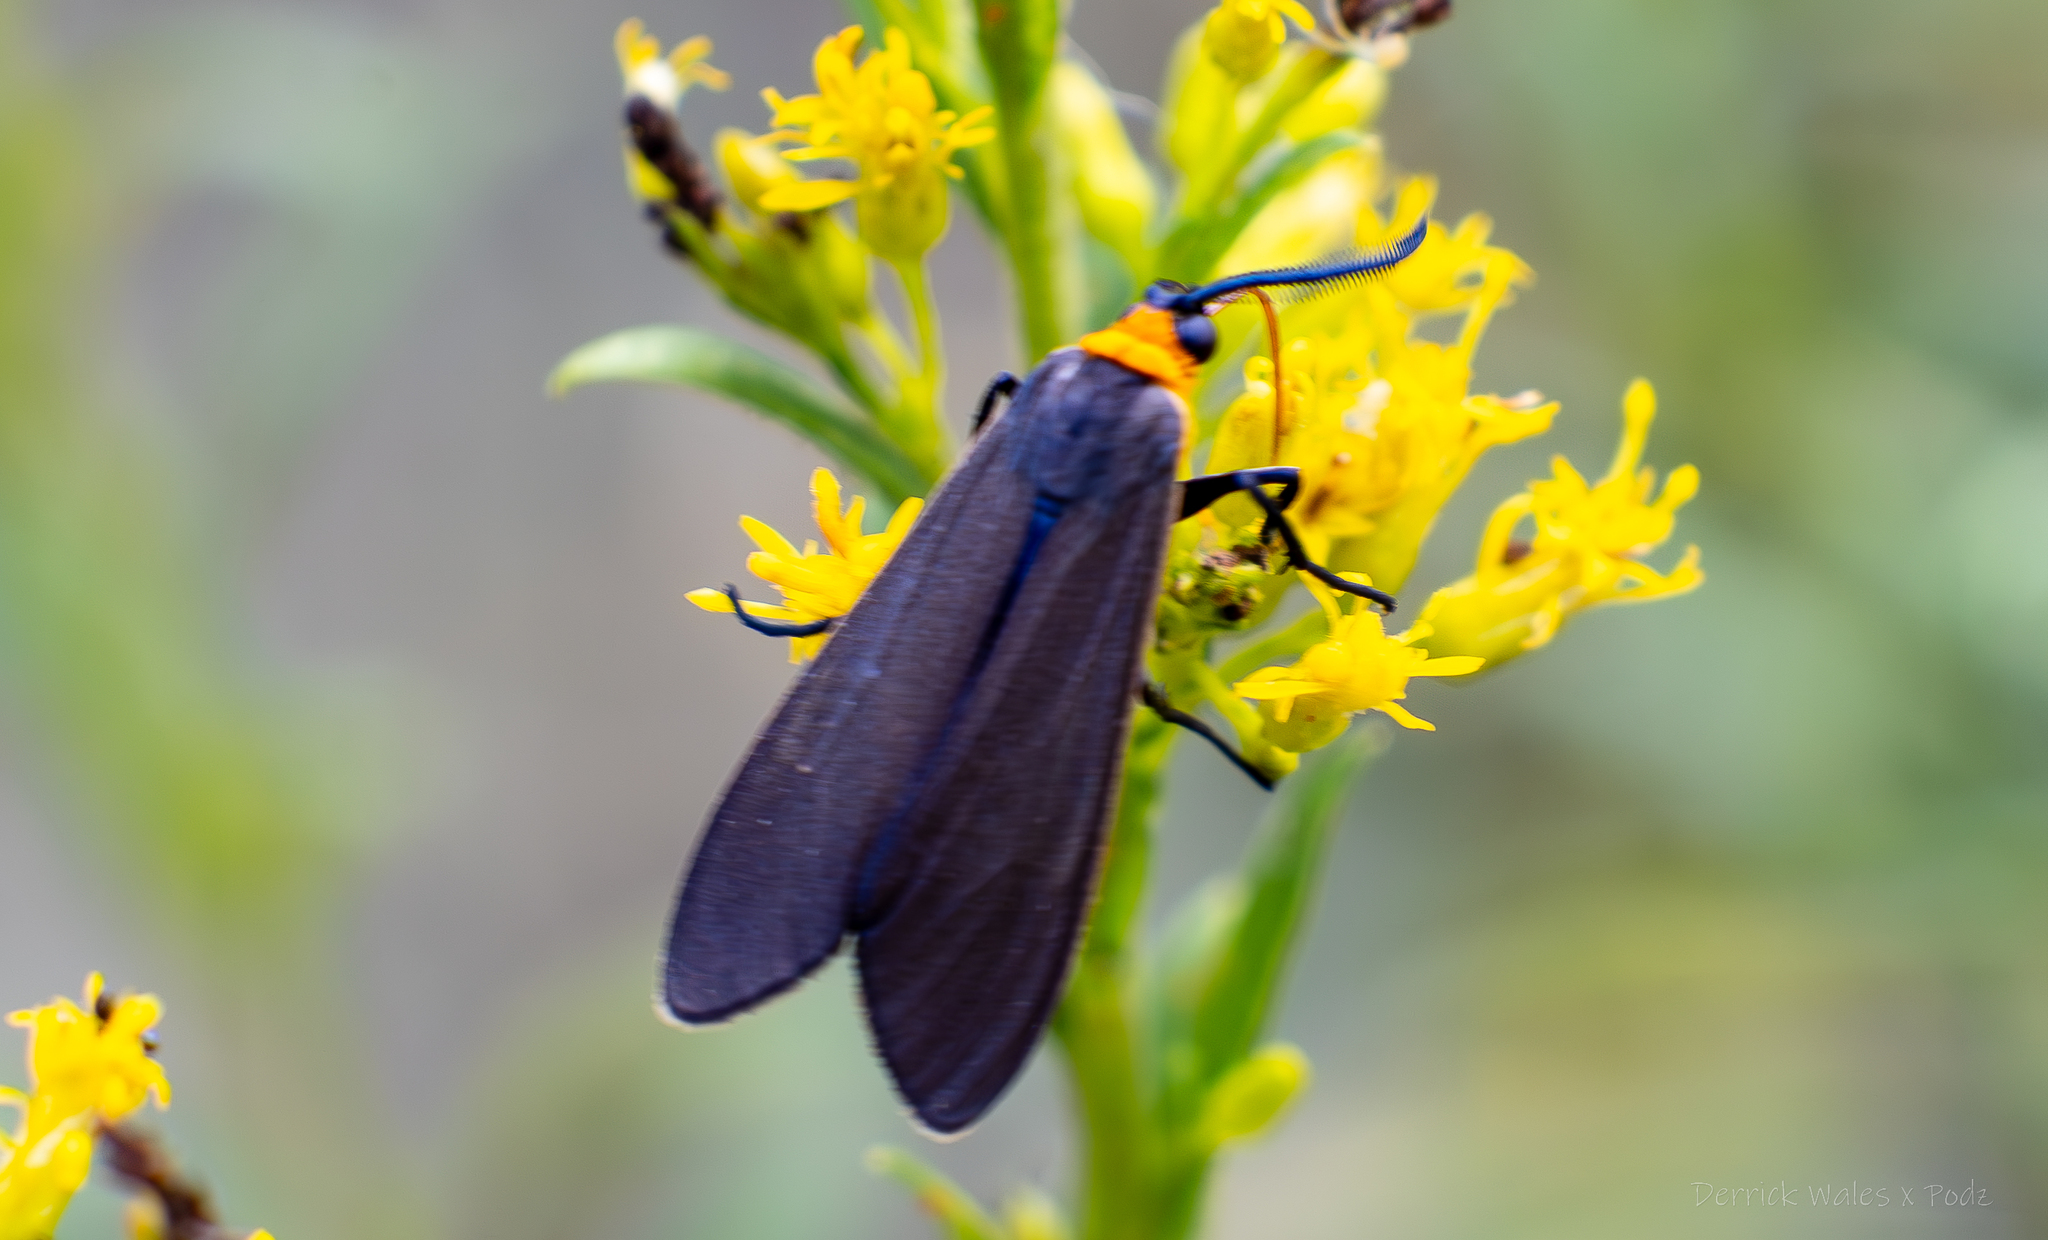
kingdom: Animalia
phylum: Arthropoda
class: Insecta
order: Lepidoptera
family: Erebidae
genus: Cisseps
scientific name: Cisseps fulvicollis
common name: Yellow-collared scape moth
